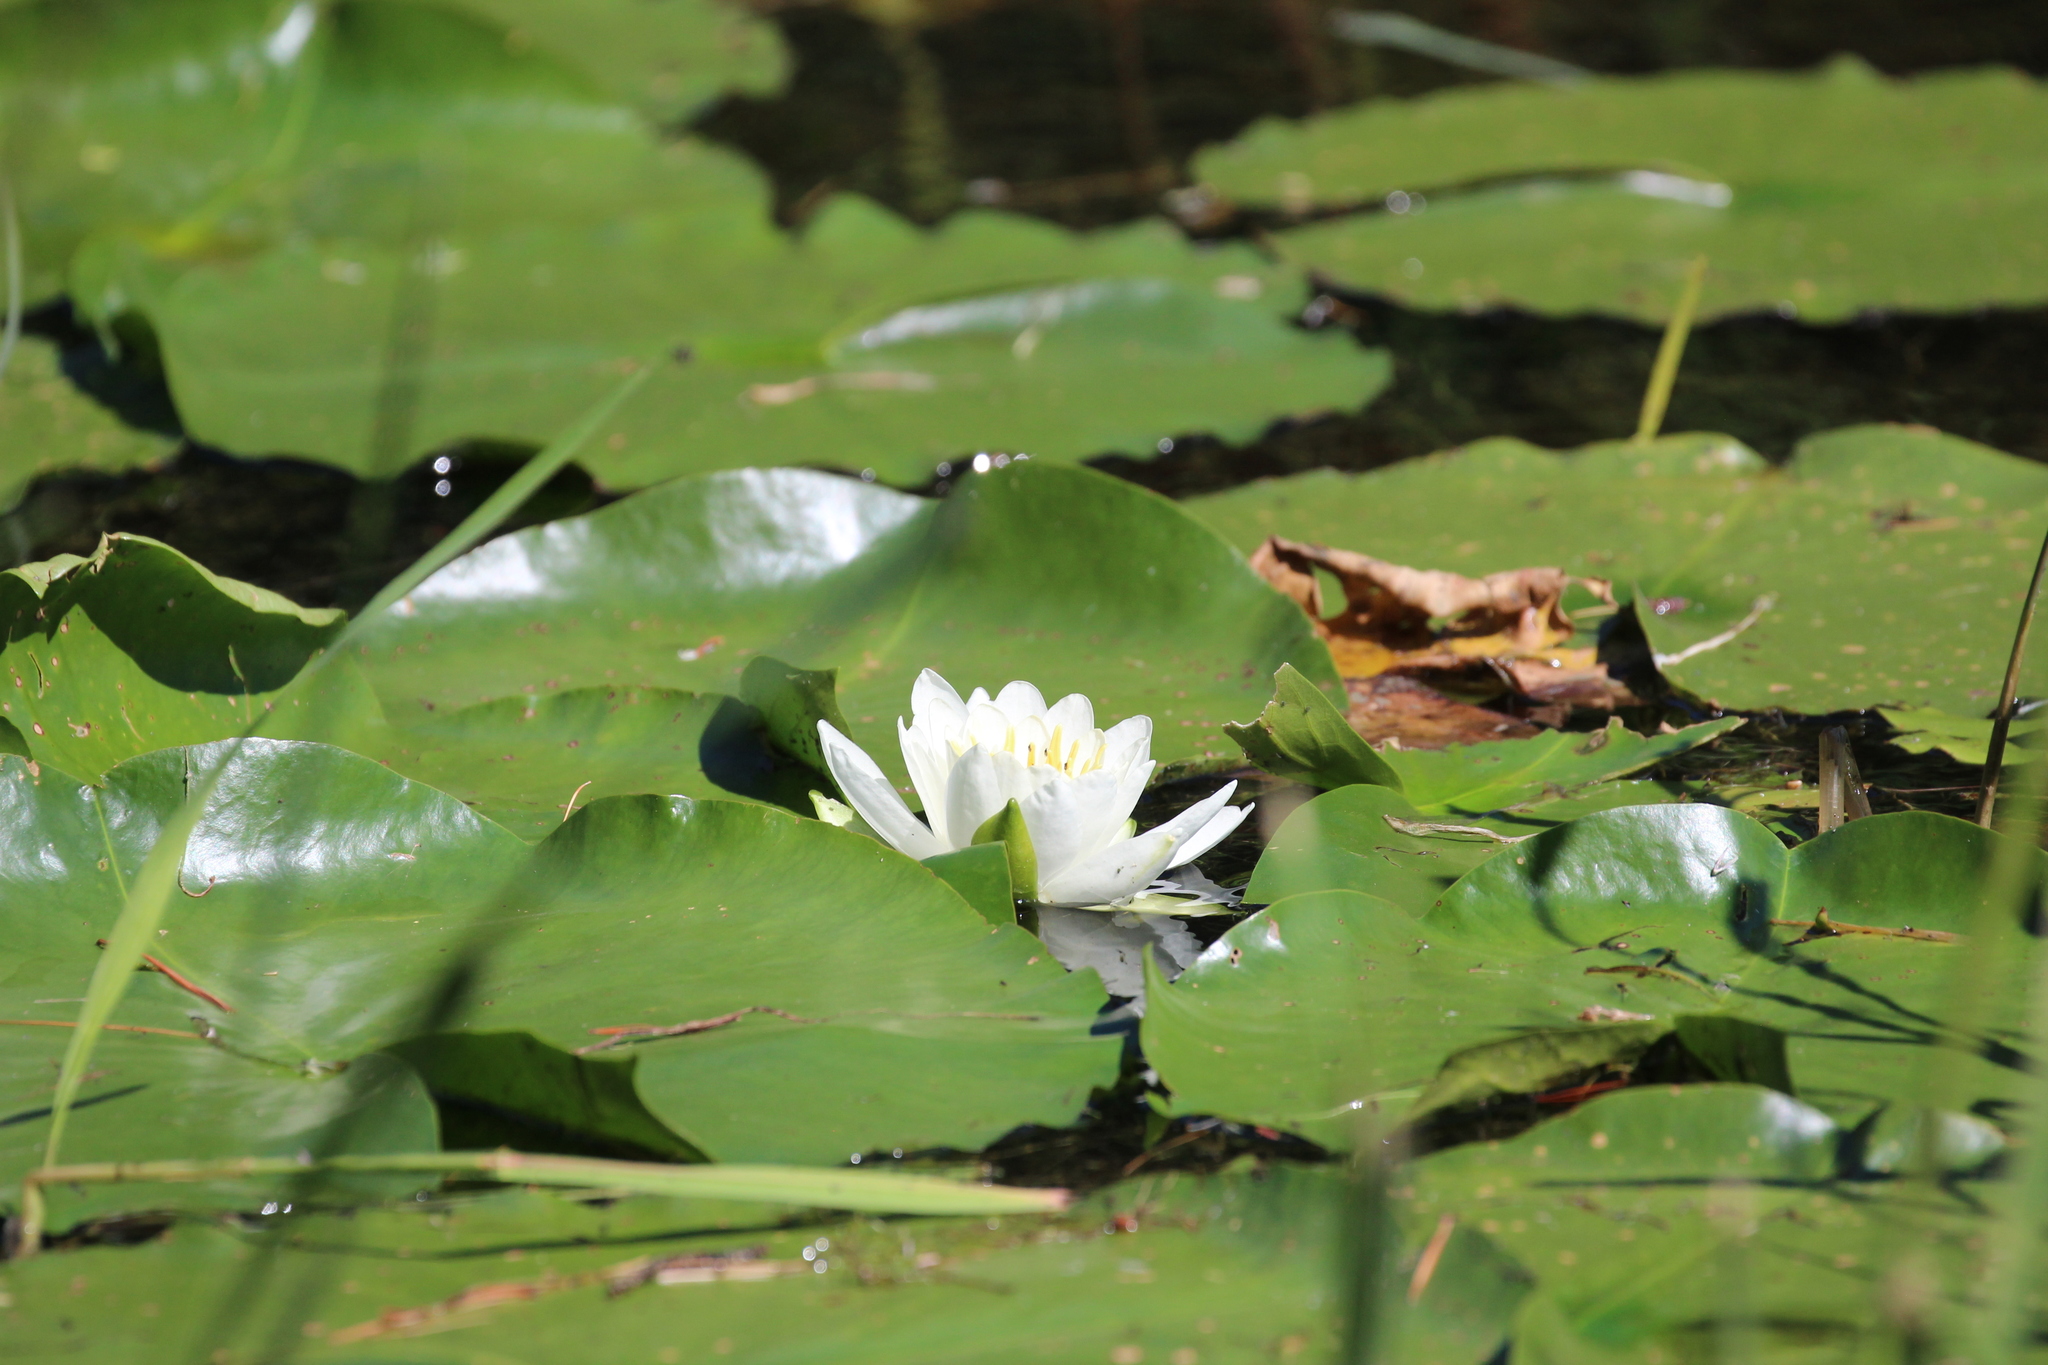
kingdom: Plantae
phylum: Tracheophyta
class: Magnoliopsida
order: Nymphaeales
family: Nymphaeaceae
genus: Nymphaea
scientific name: Nymphaea odorata
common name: Fragrant water-lily
